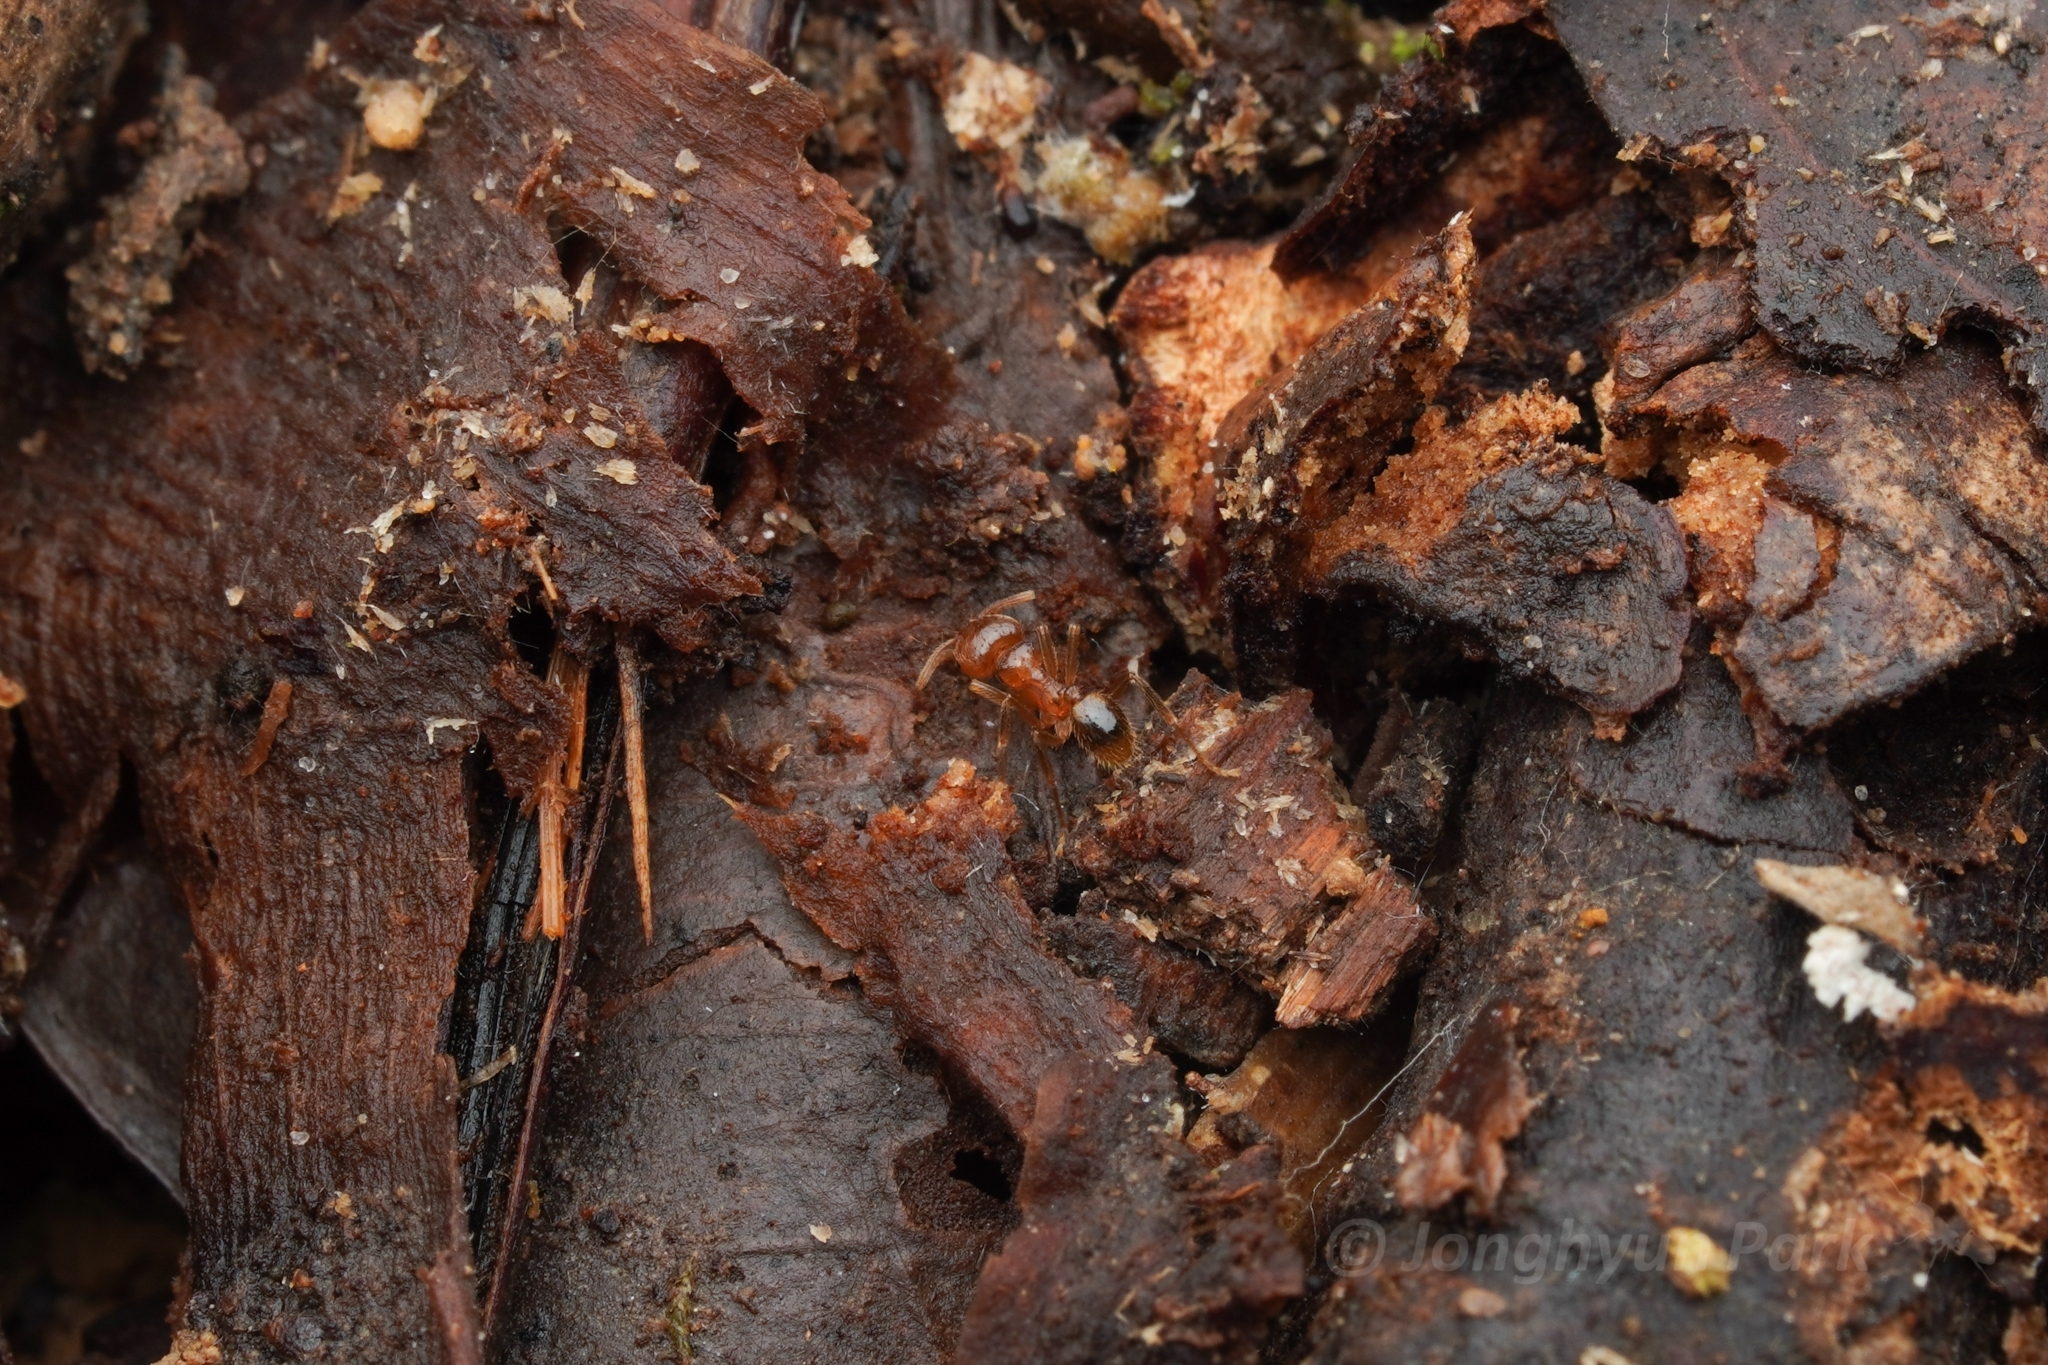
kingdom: Animalia
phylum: Arthropoda
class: Insecta
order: Hymenoptera
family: Formicidae
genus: Lophomyrmex
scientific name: Lophomyrmex longicornis
